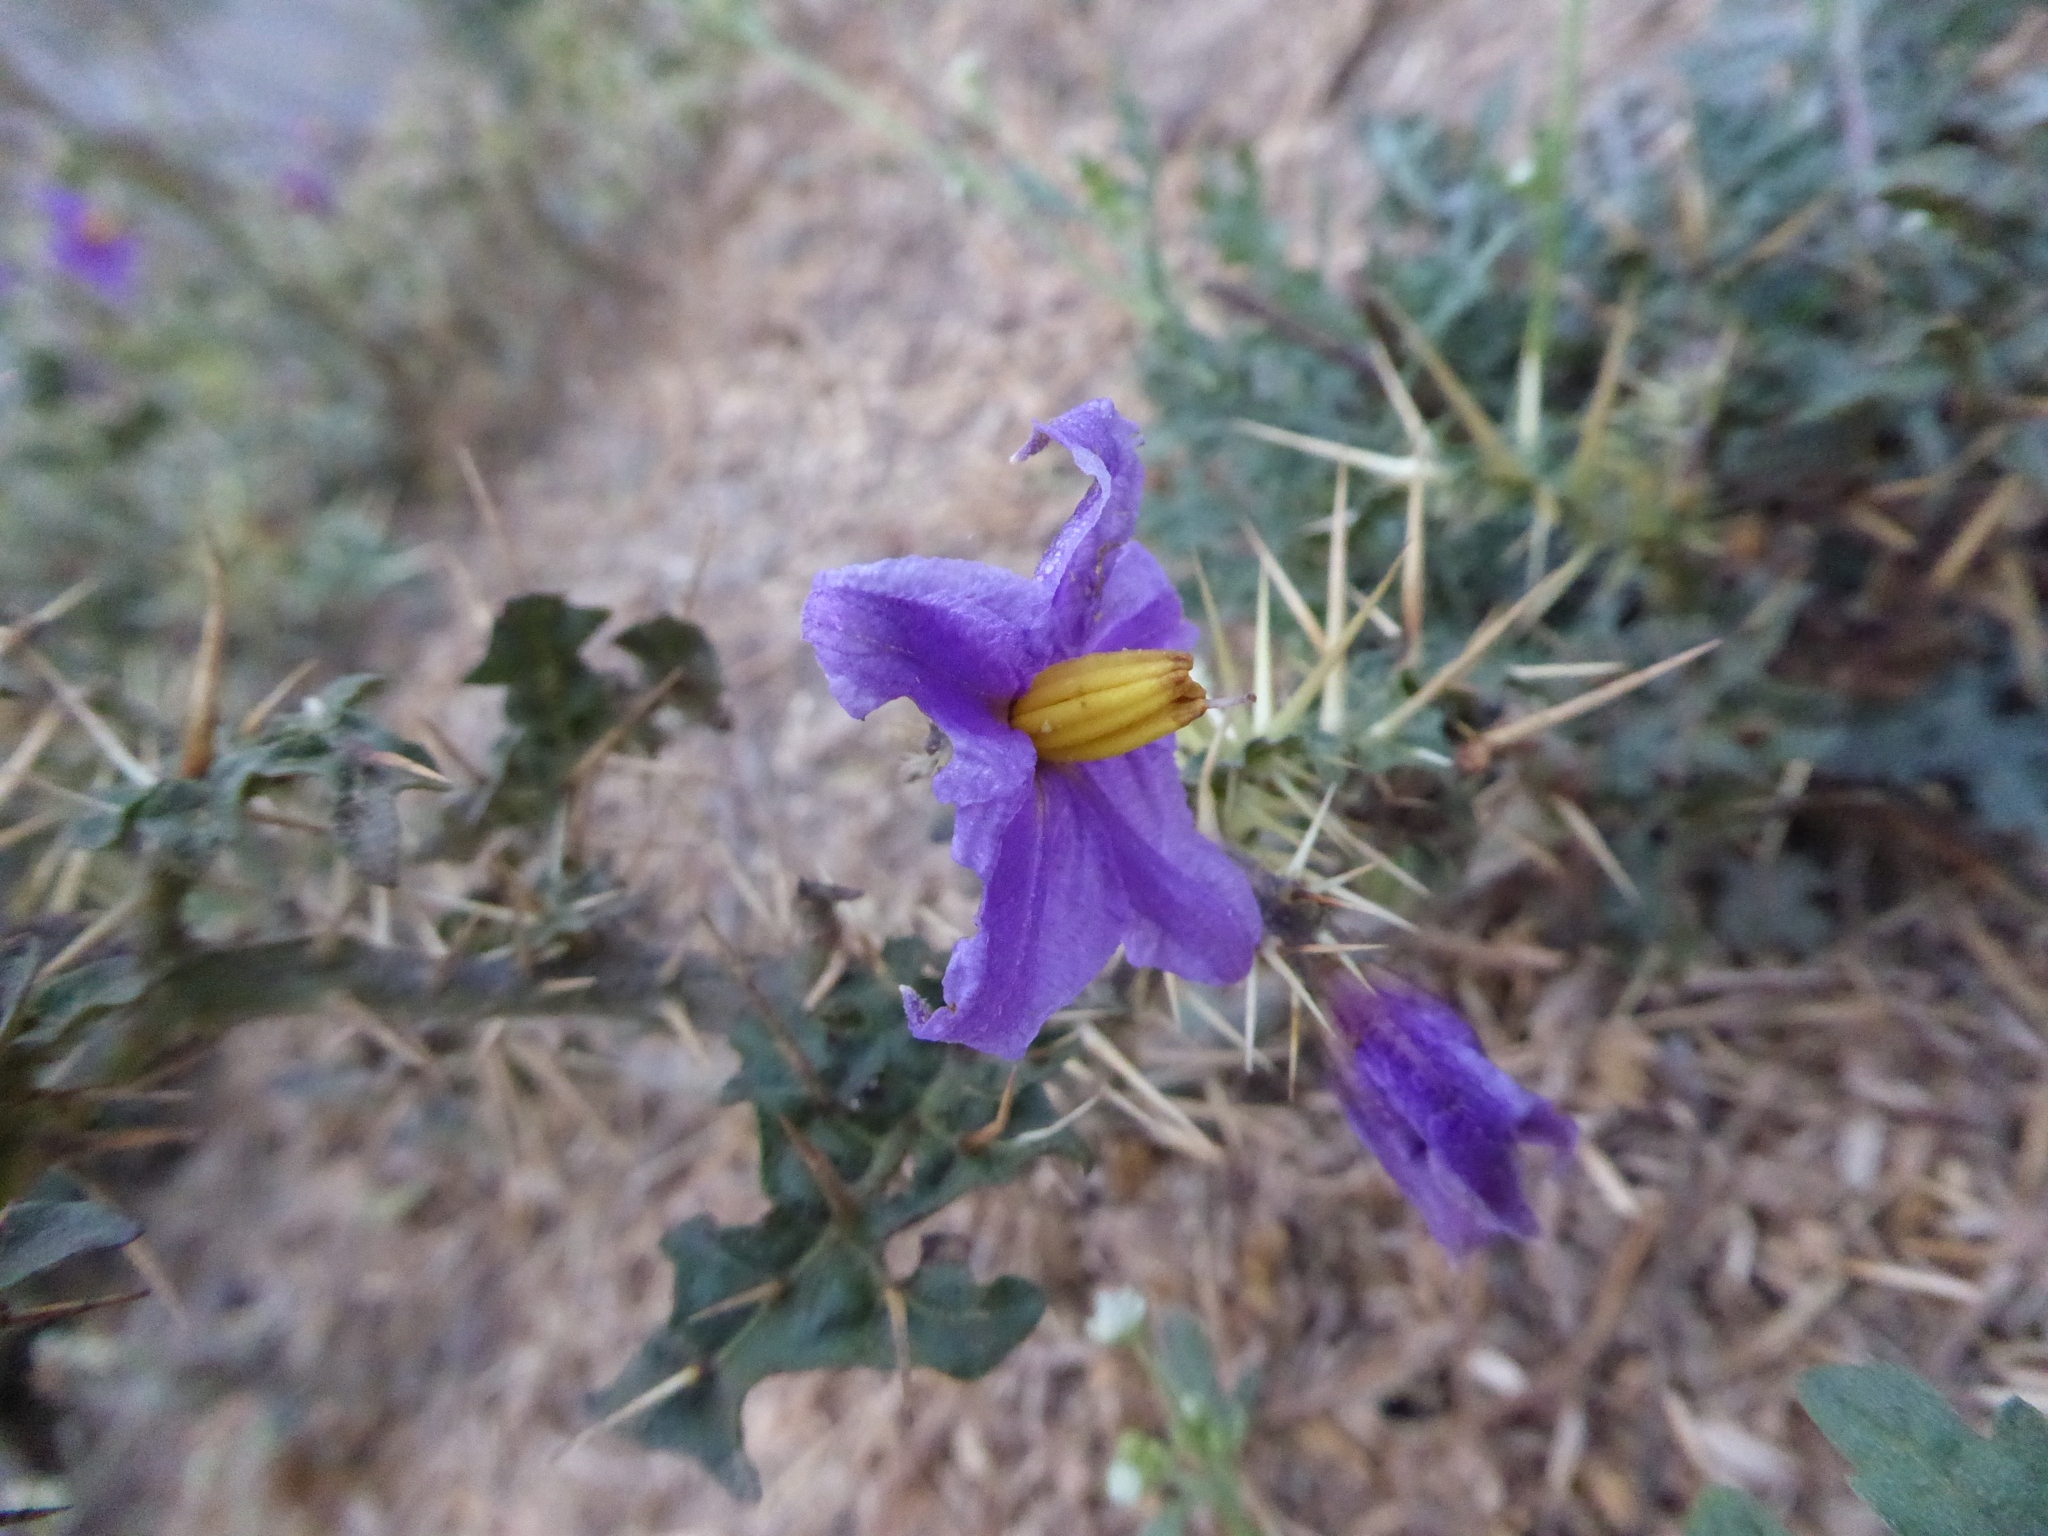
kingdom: Plantae
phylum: Tracheophyta
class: Magnoliopsida
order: Solanales
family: Solanaceae
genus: Solanum
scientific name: Solanum virginianum
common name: Surattense nightshade
